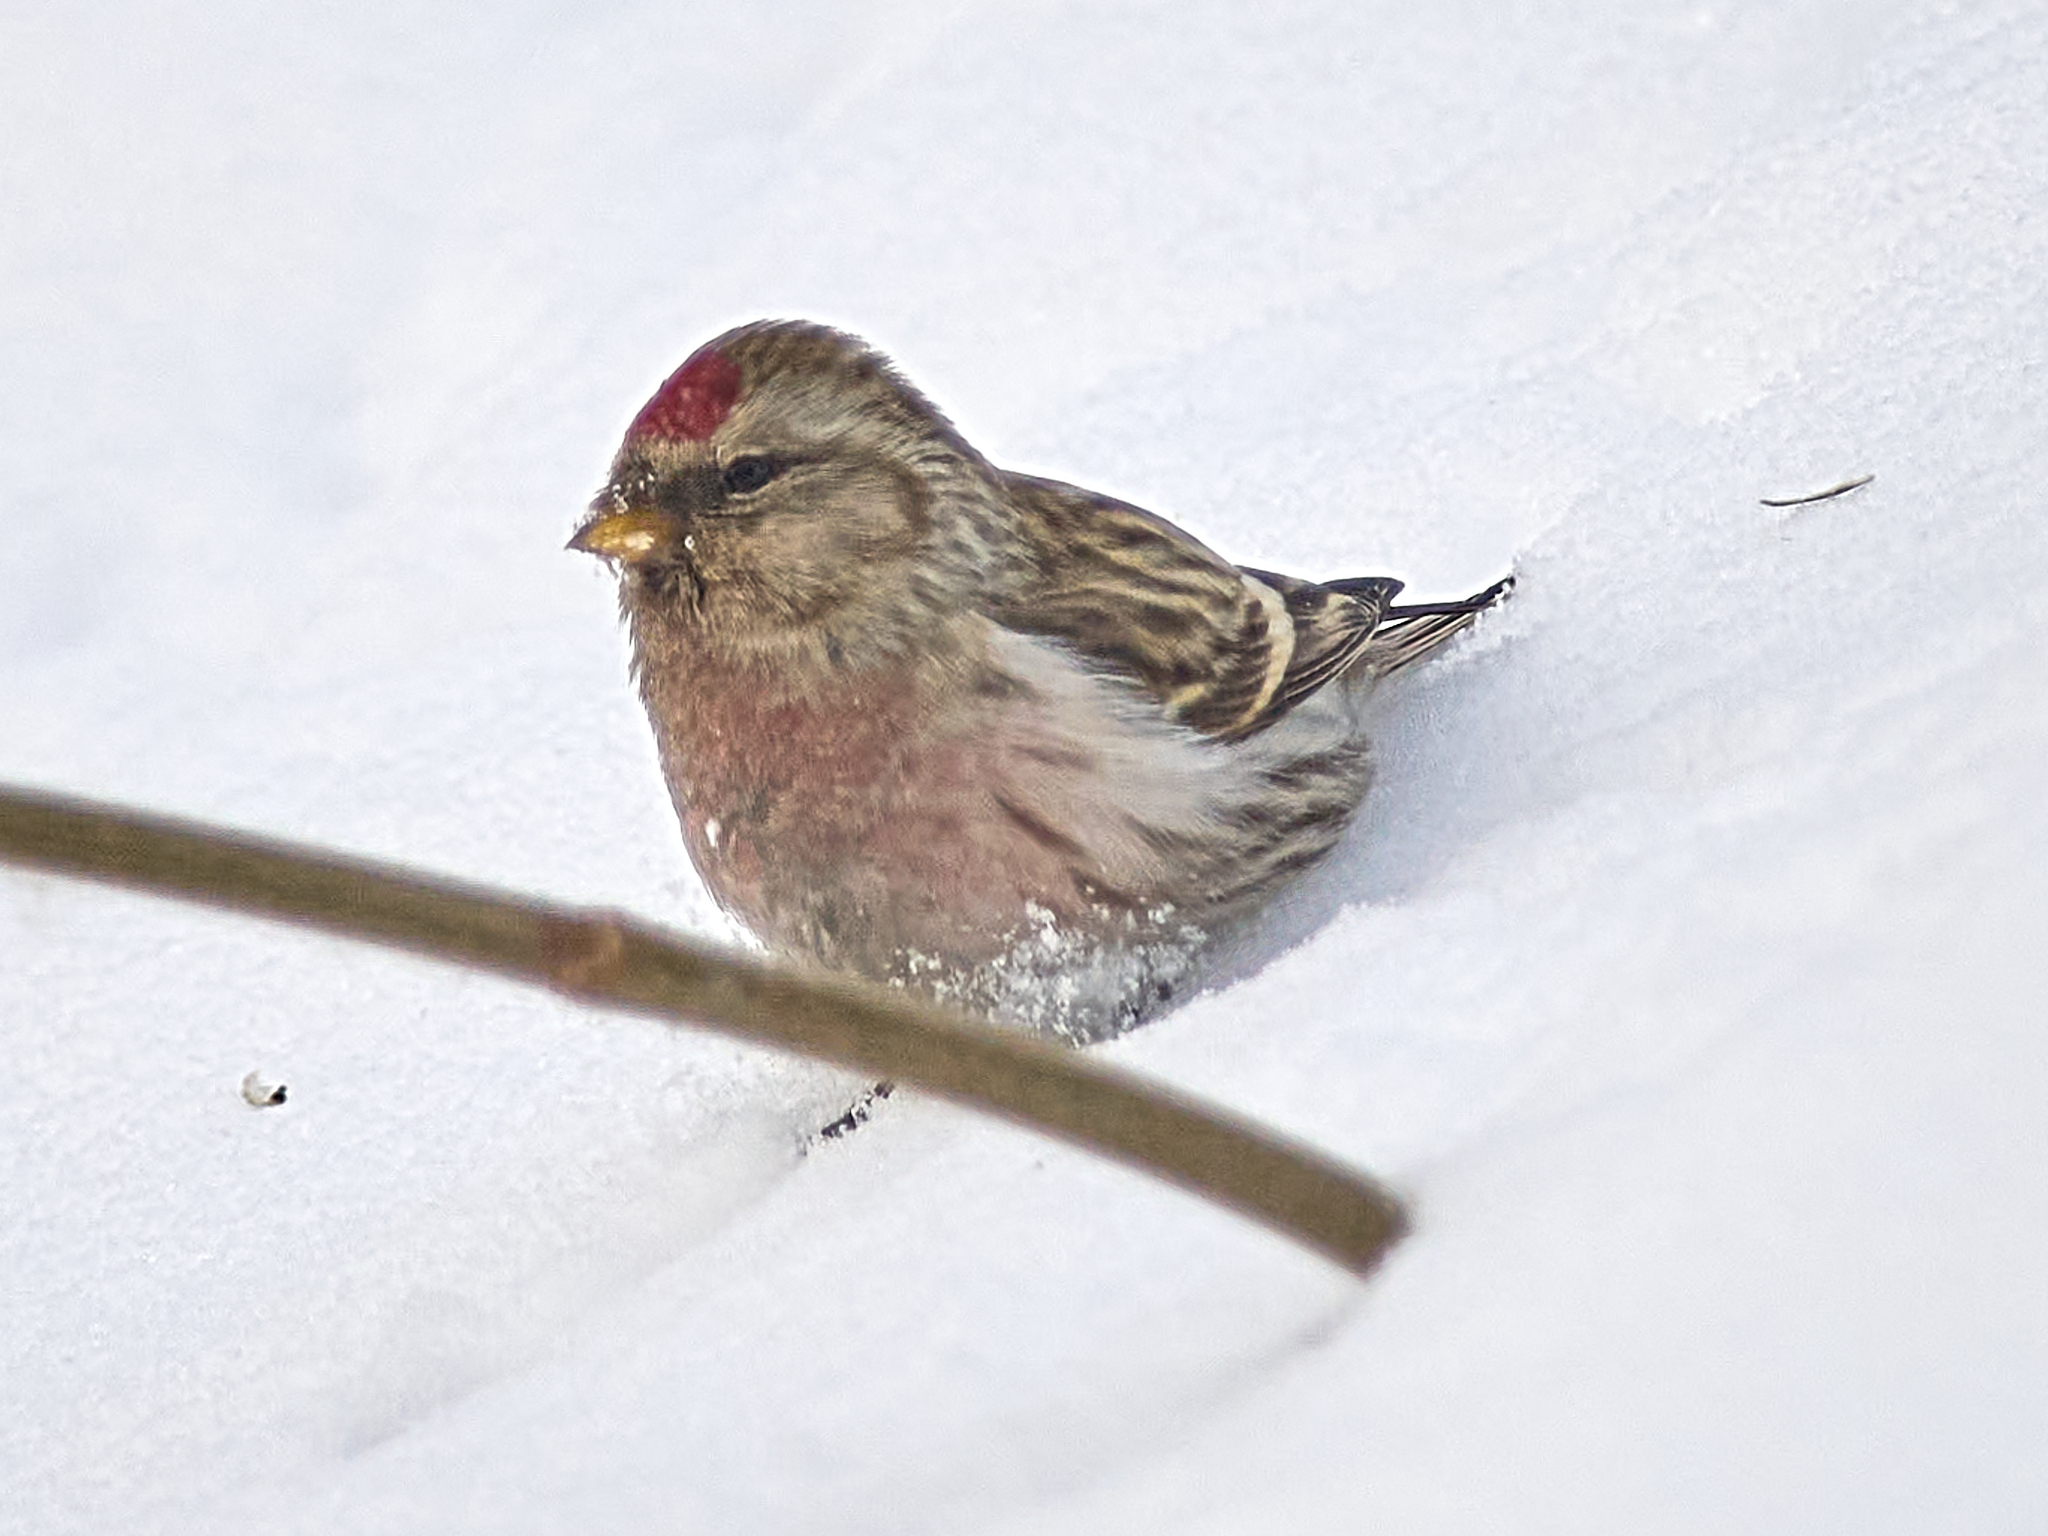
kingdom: Animalia
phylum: Chordata
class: Aves
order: Passeriformes
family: Fringillidae
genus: Acanthis
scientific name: Acanthis flammea
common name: Common redpoll
